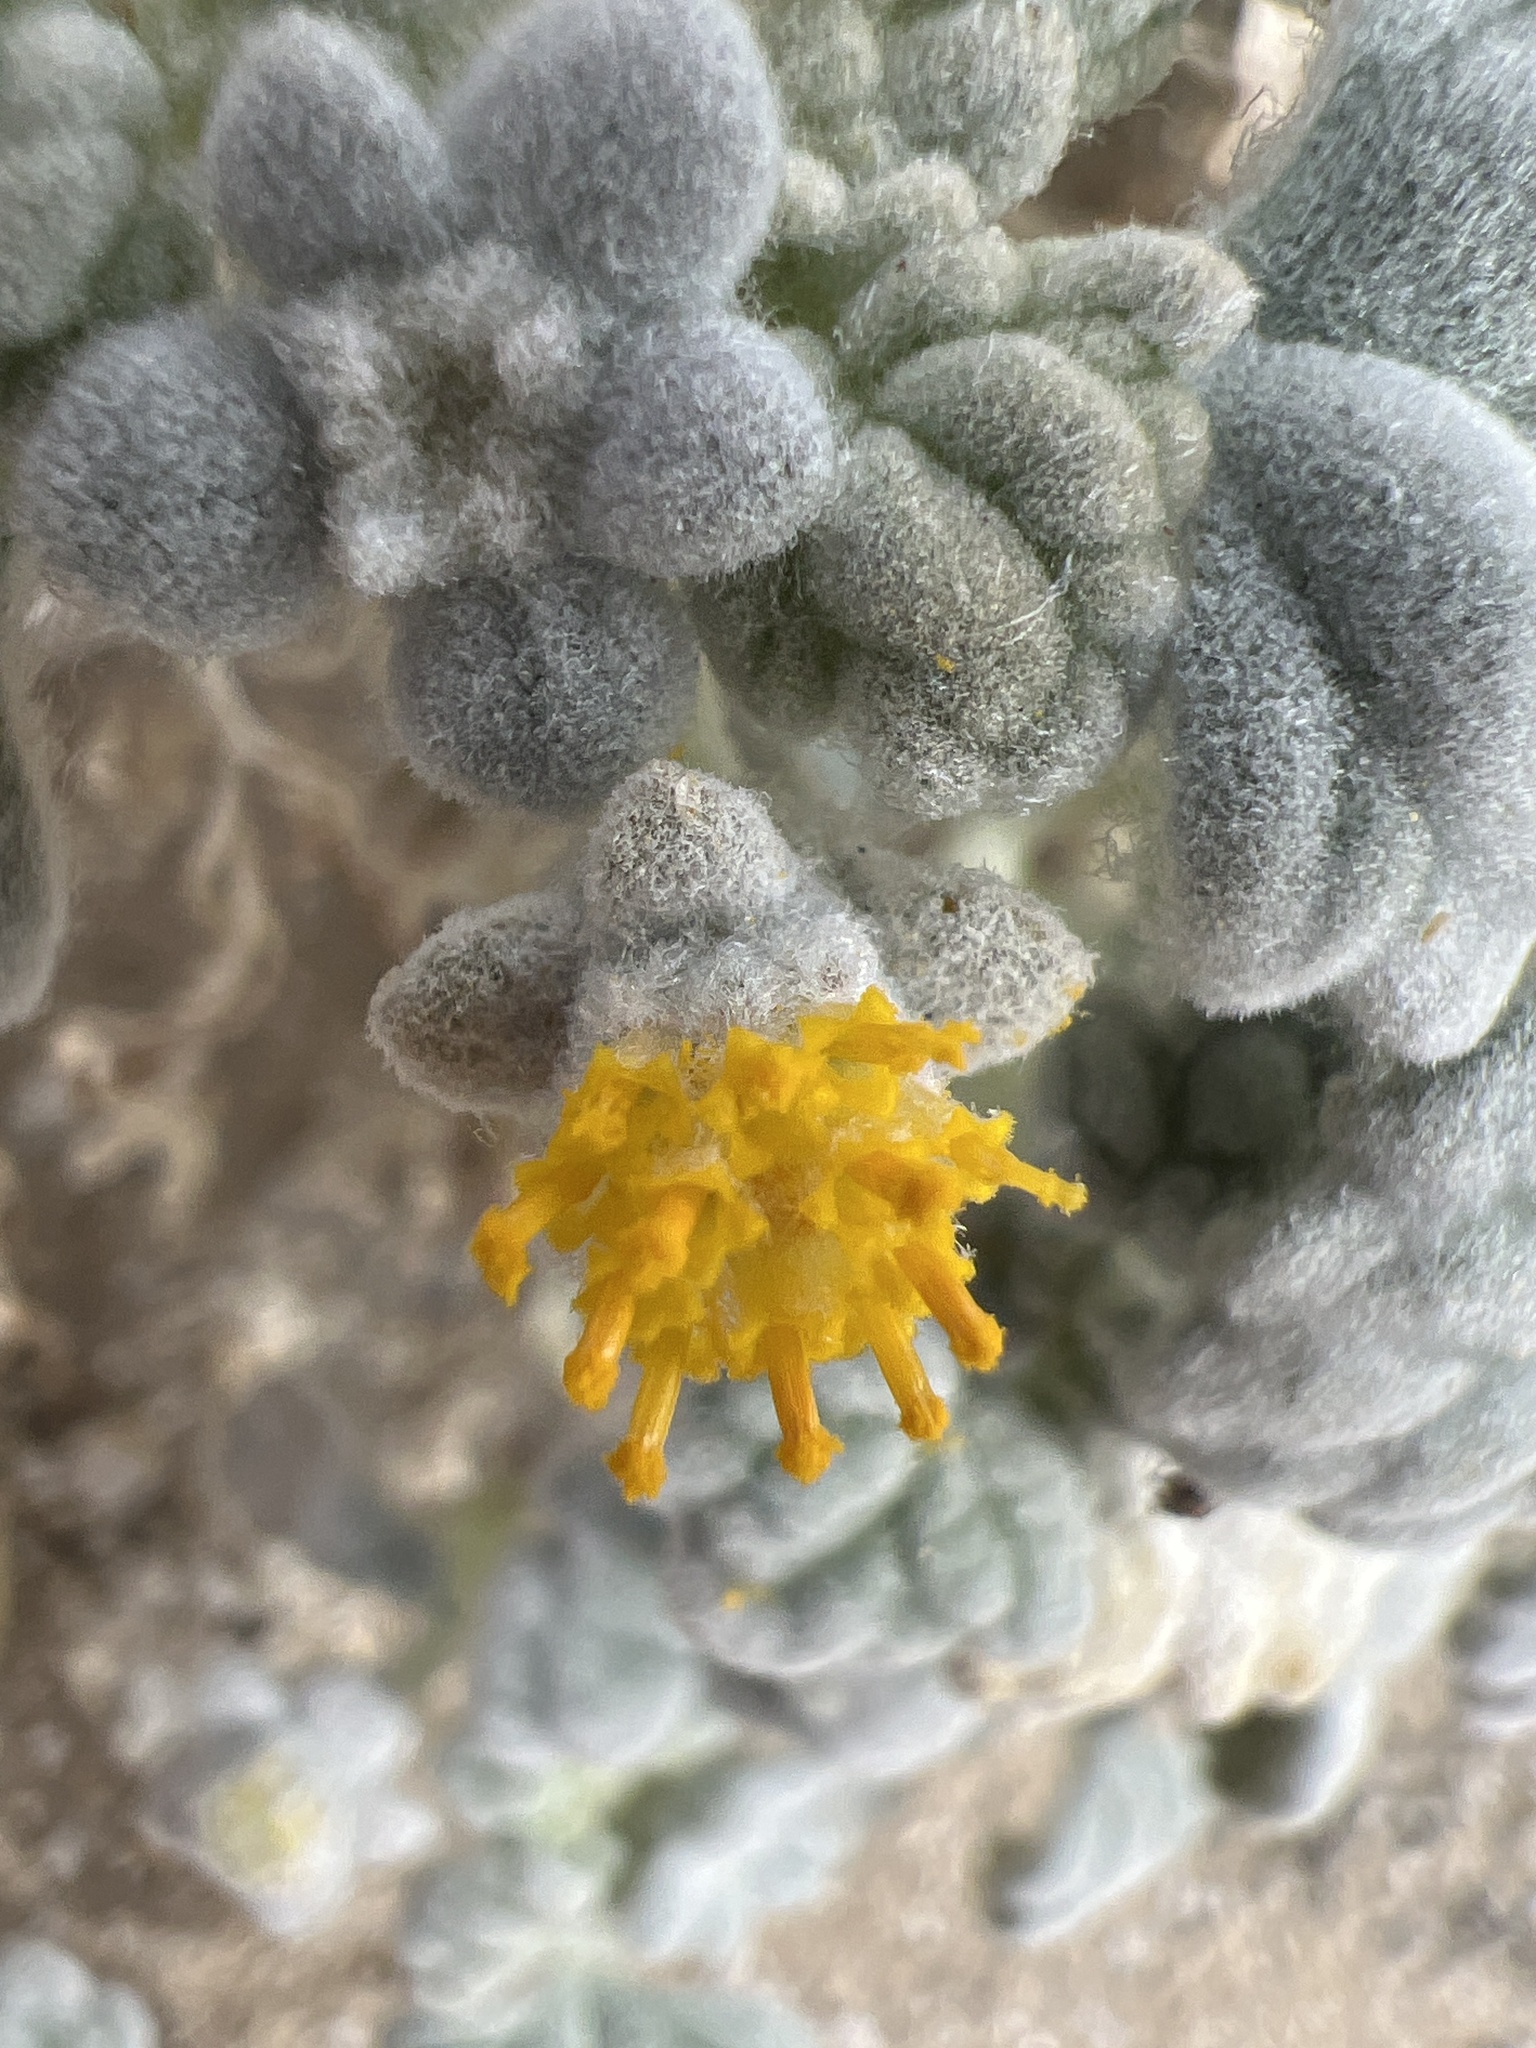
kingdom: Plantae
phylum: Tracheophyta
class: Magnoliopsida
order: Asterales
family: Asteraceae
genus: Psathyrotes
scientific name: Psathyrotes ramosissima
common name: Turtleback
